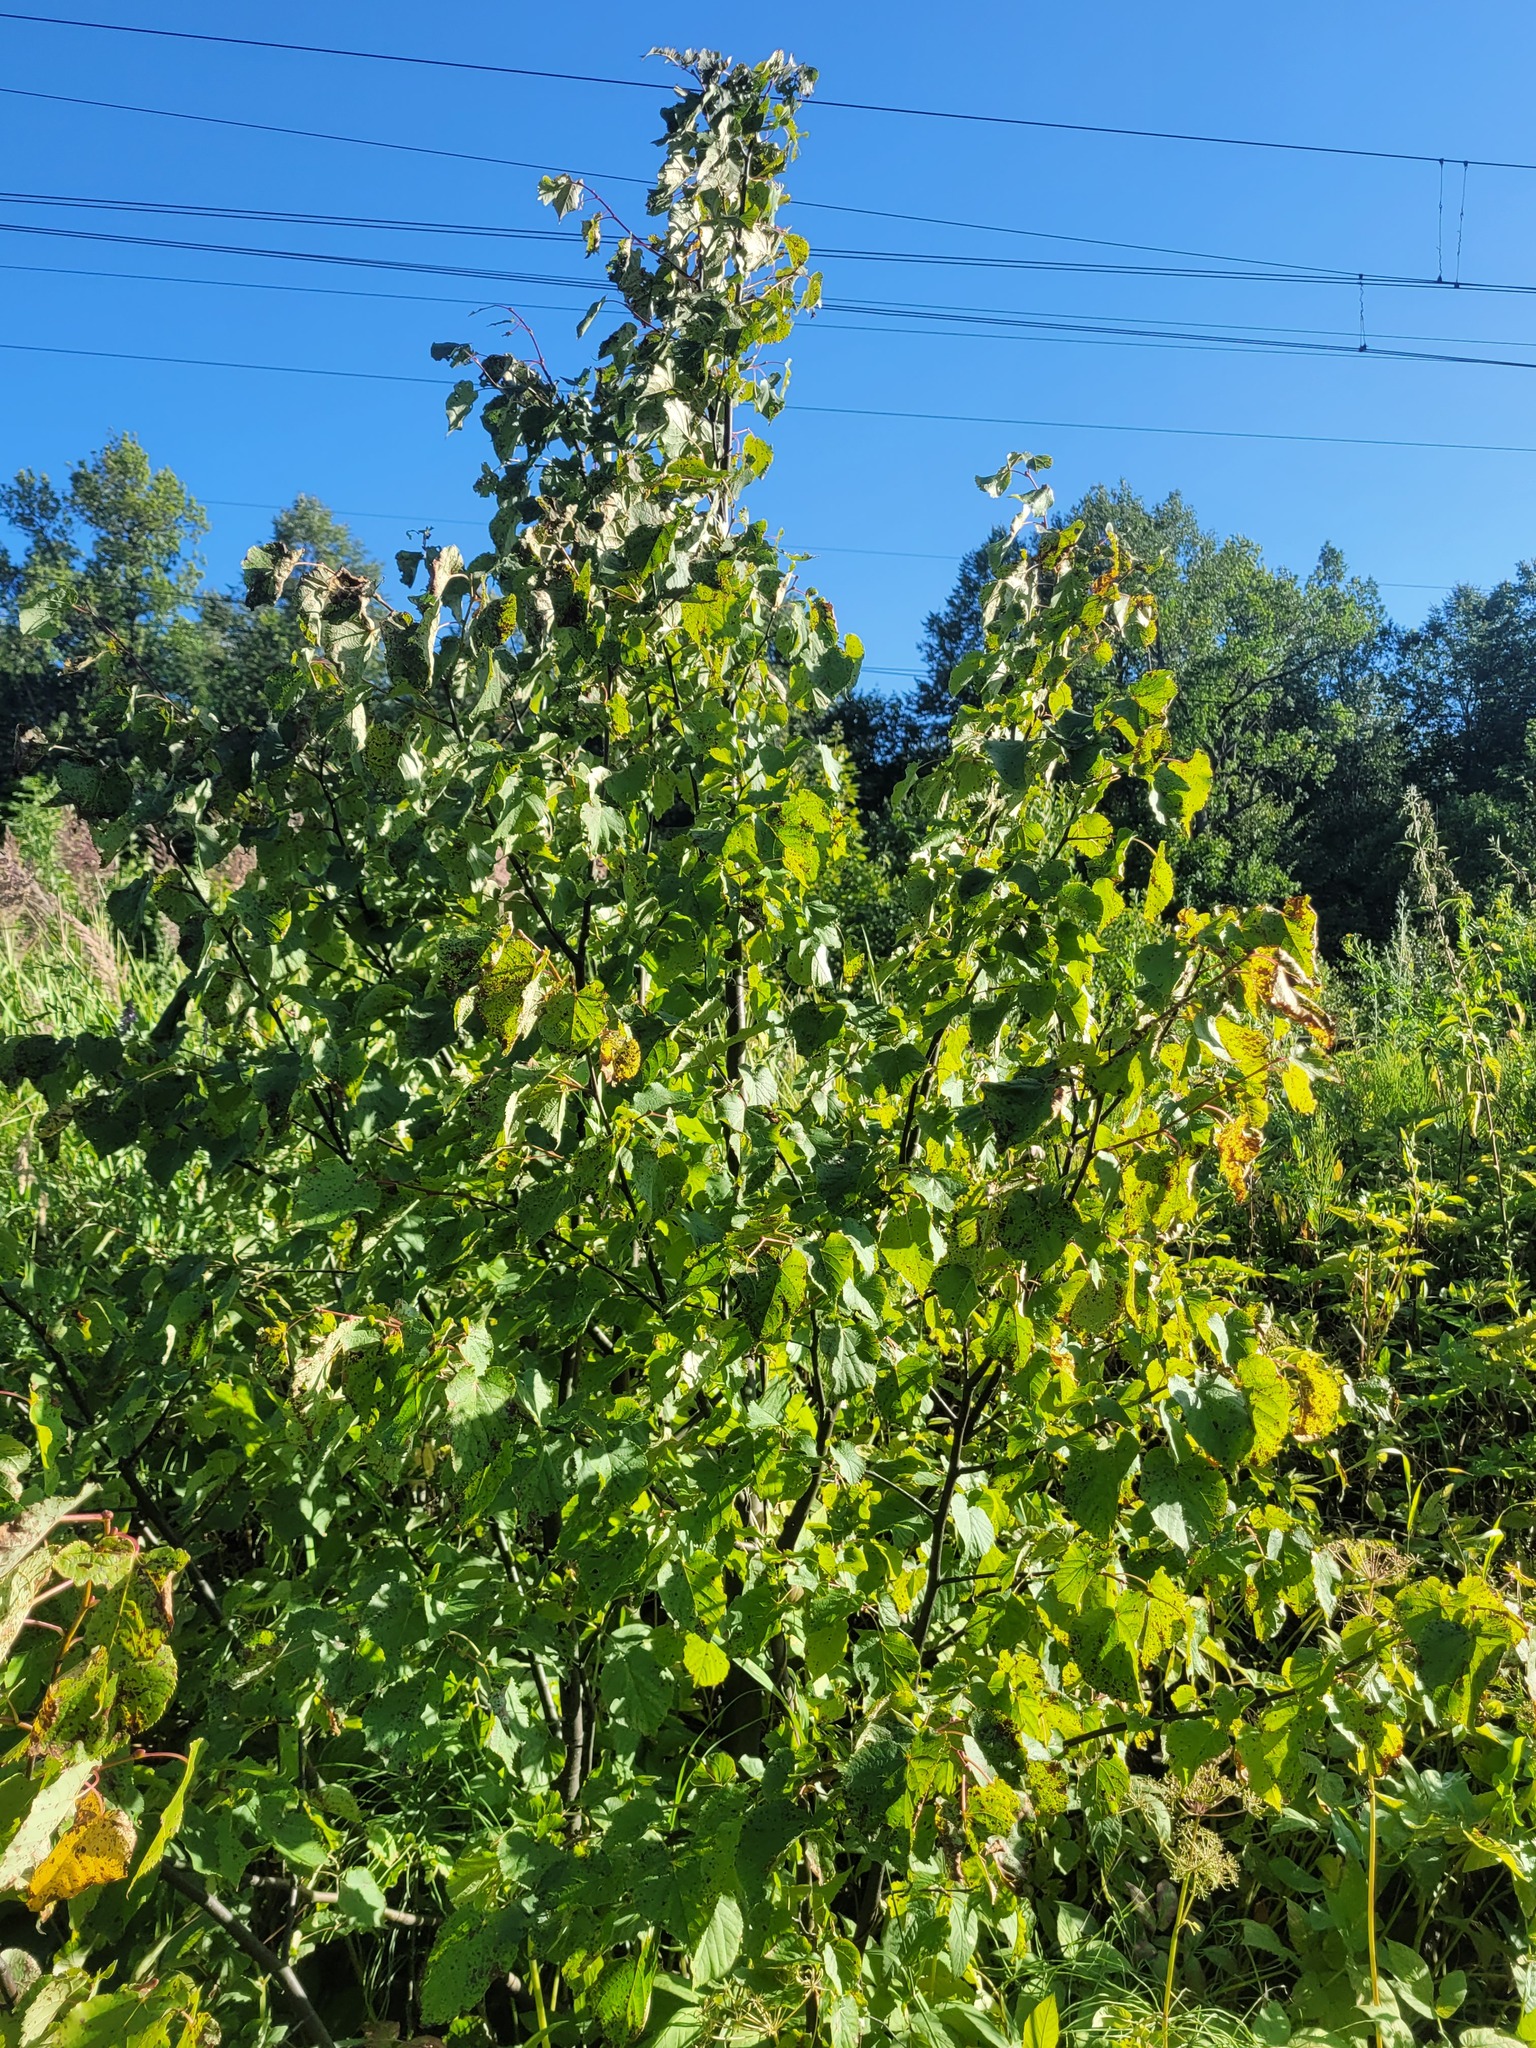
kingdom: Plantae
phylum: Tracheophyta
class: Magnoliopsida
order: Malvales
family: Malvaceae
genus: Tilia
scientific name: Tilia cordata
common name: Small-leaved lime
